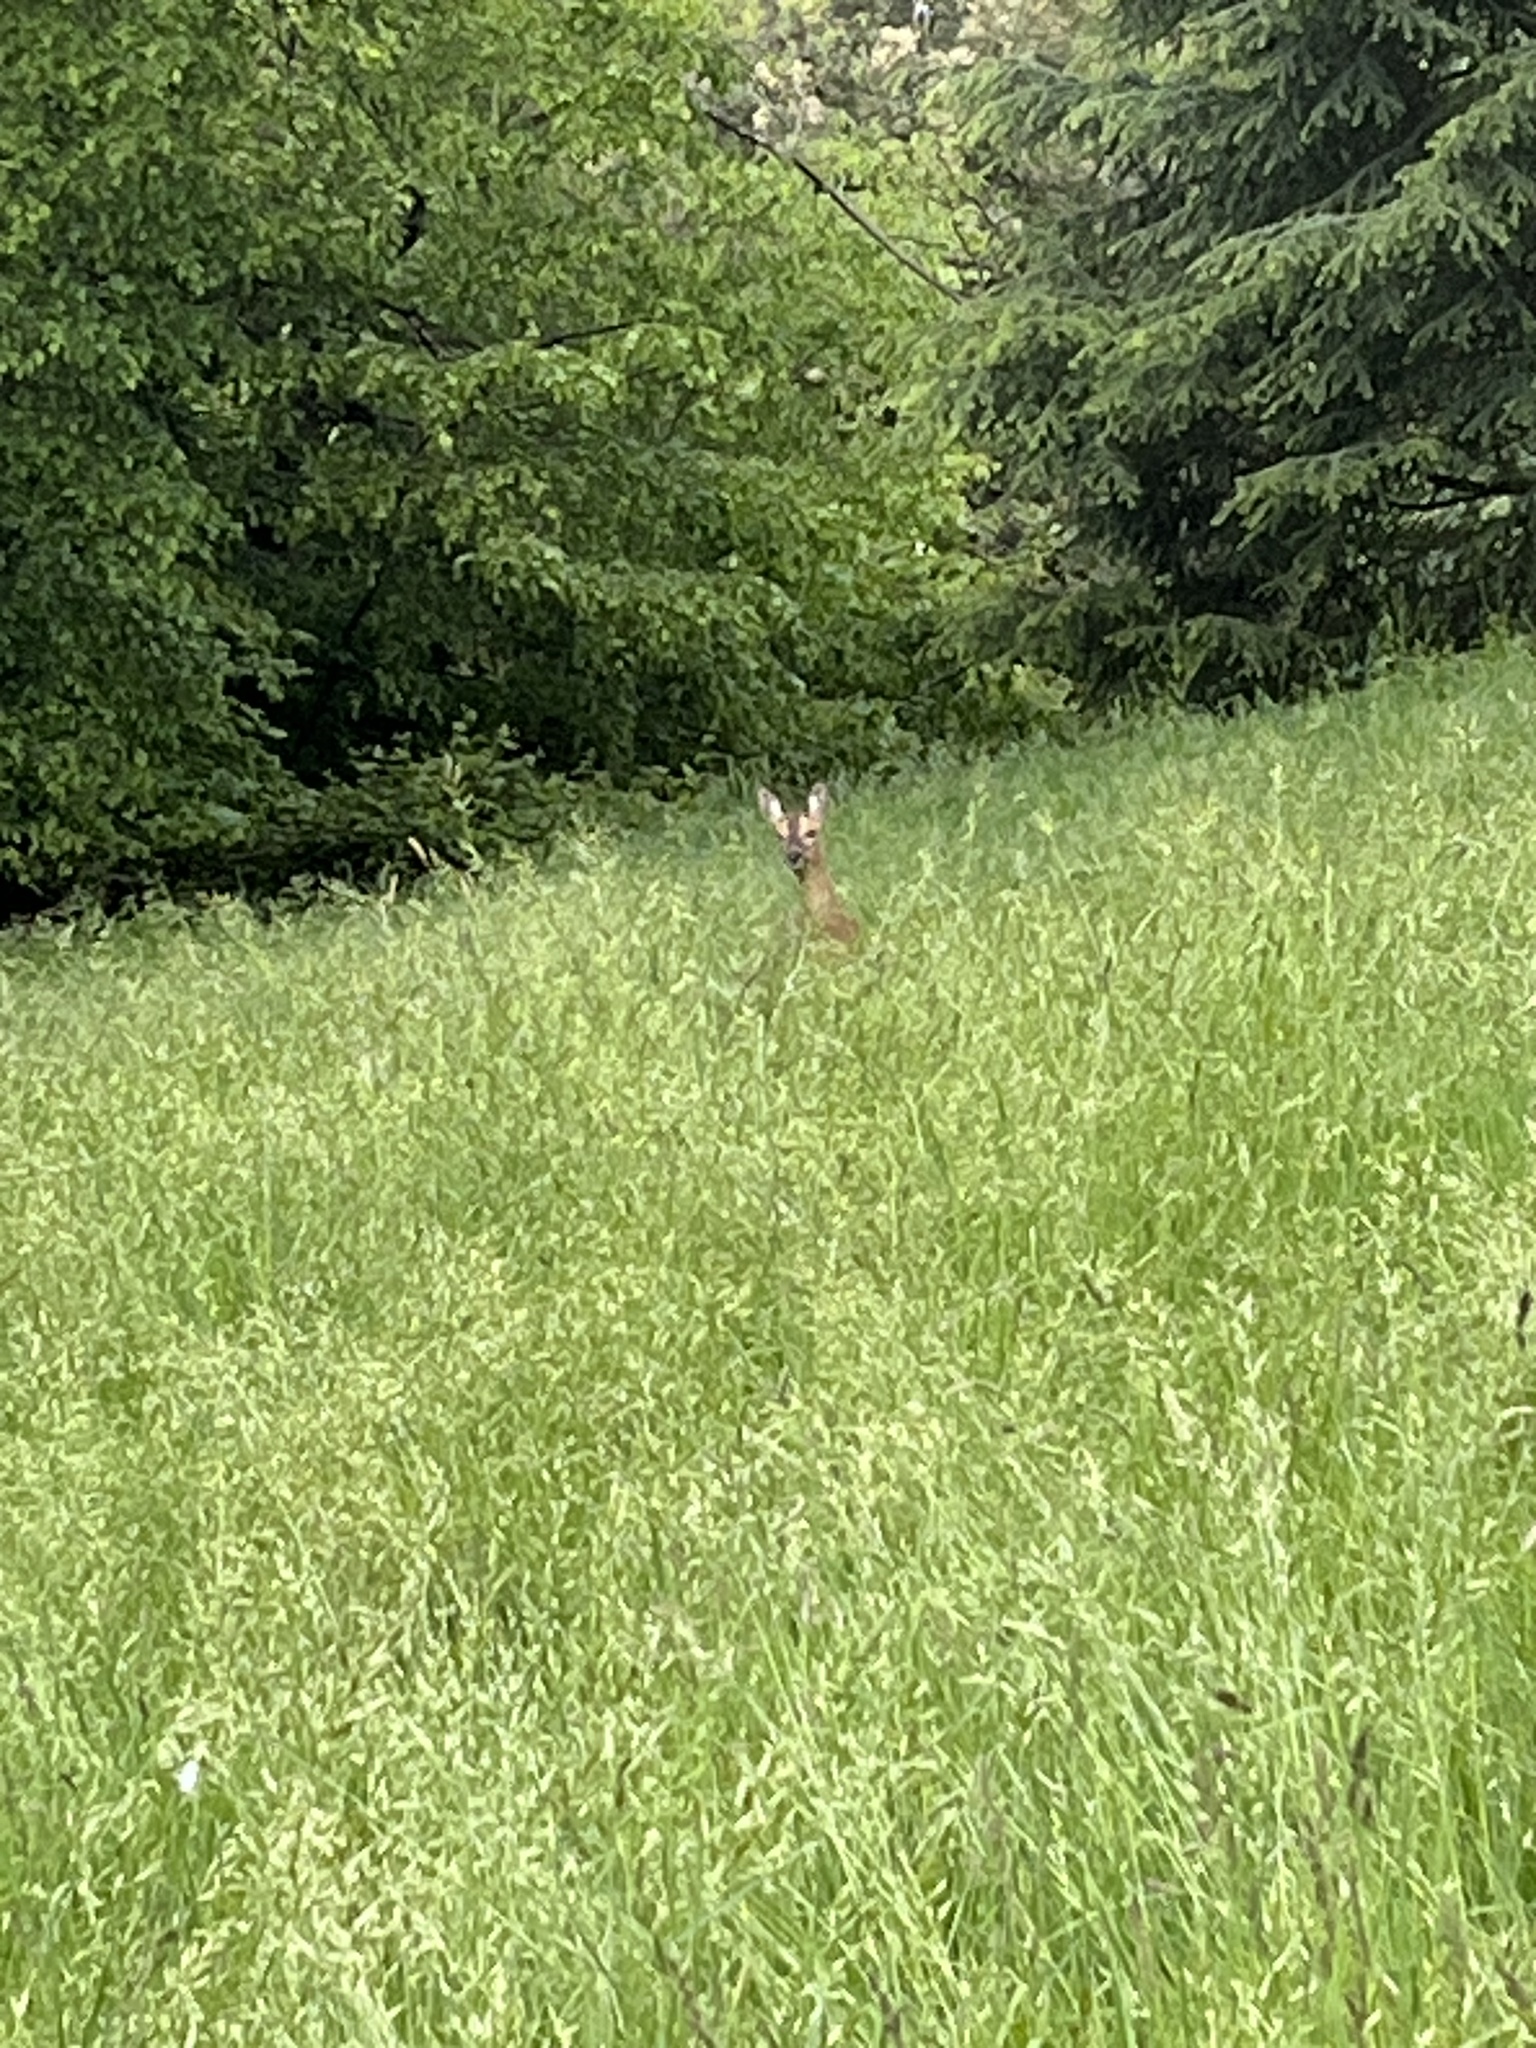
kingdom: Animalia
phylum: Chordata
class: Mammalia
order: Artiodactyla
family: Cervidae
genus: Capreolus
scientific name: Capreolus capreolus
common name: Western roe deer
